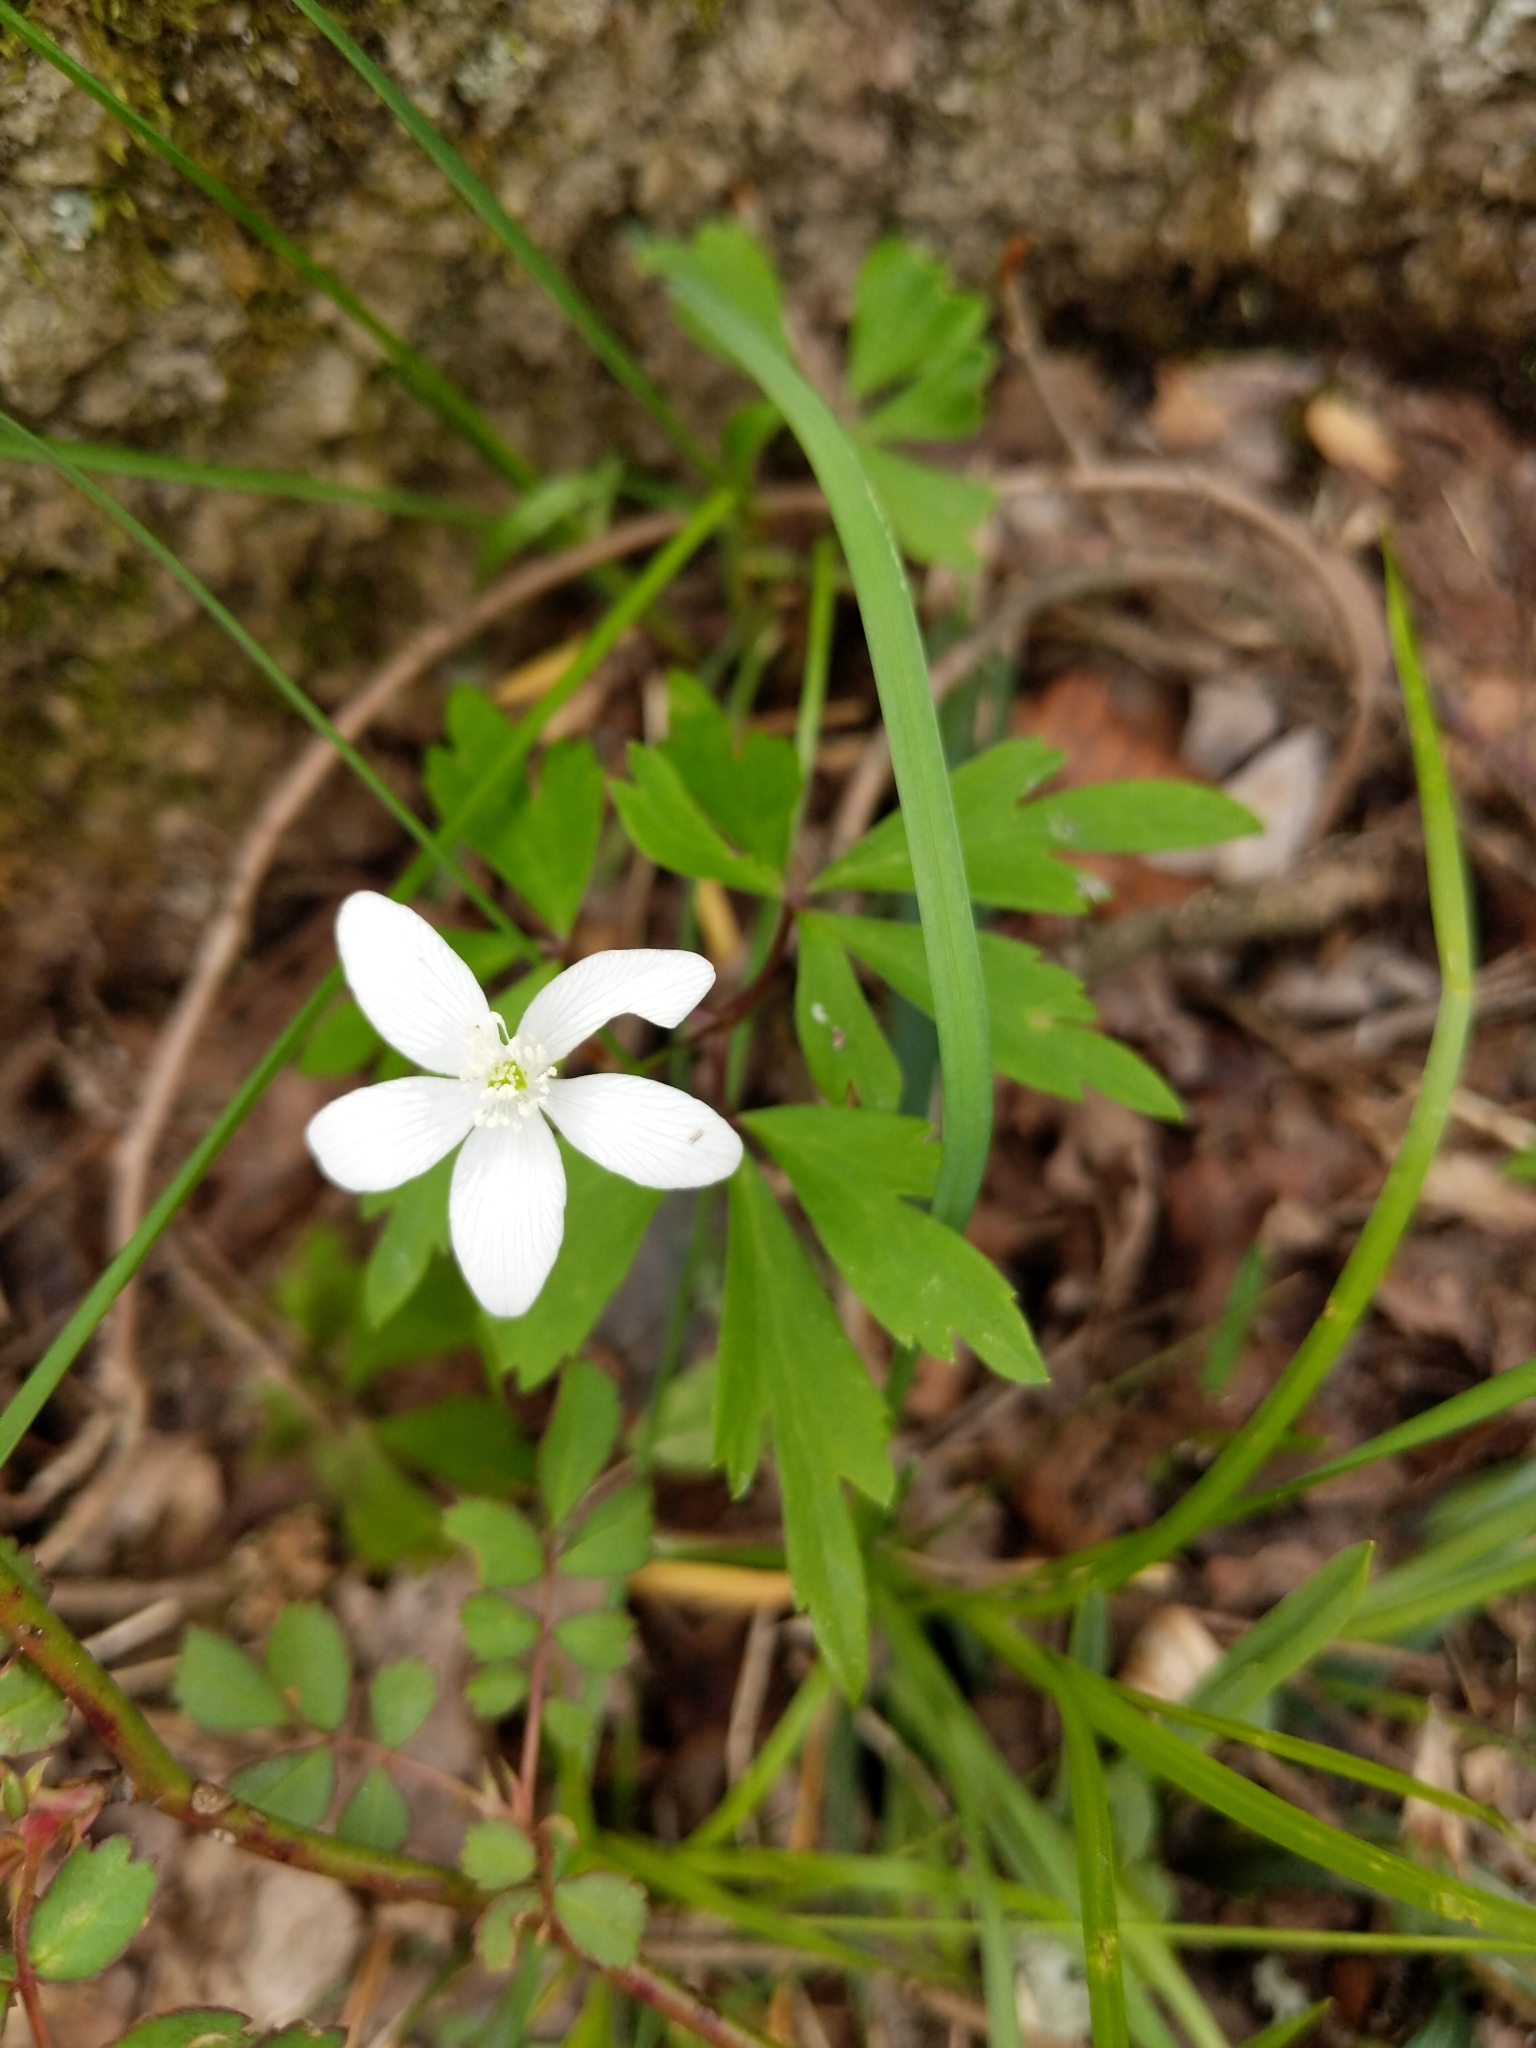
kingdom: Plantae
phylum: Tracheophyta
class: Magnoliopsida
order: Ranunculales
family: Ranunculaceae
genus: Anemone
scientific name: Anemone quinquefolia
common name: Wood anemone
